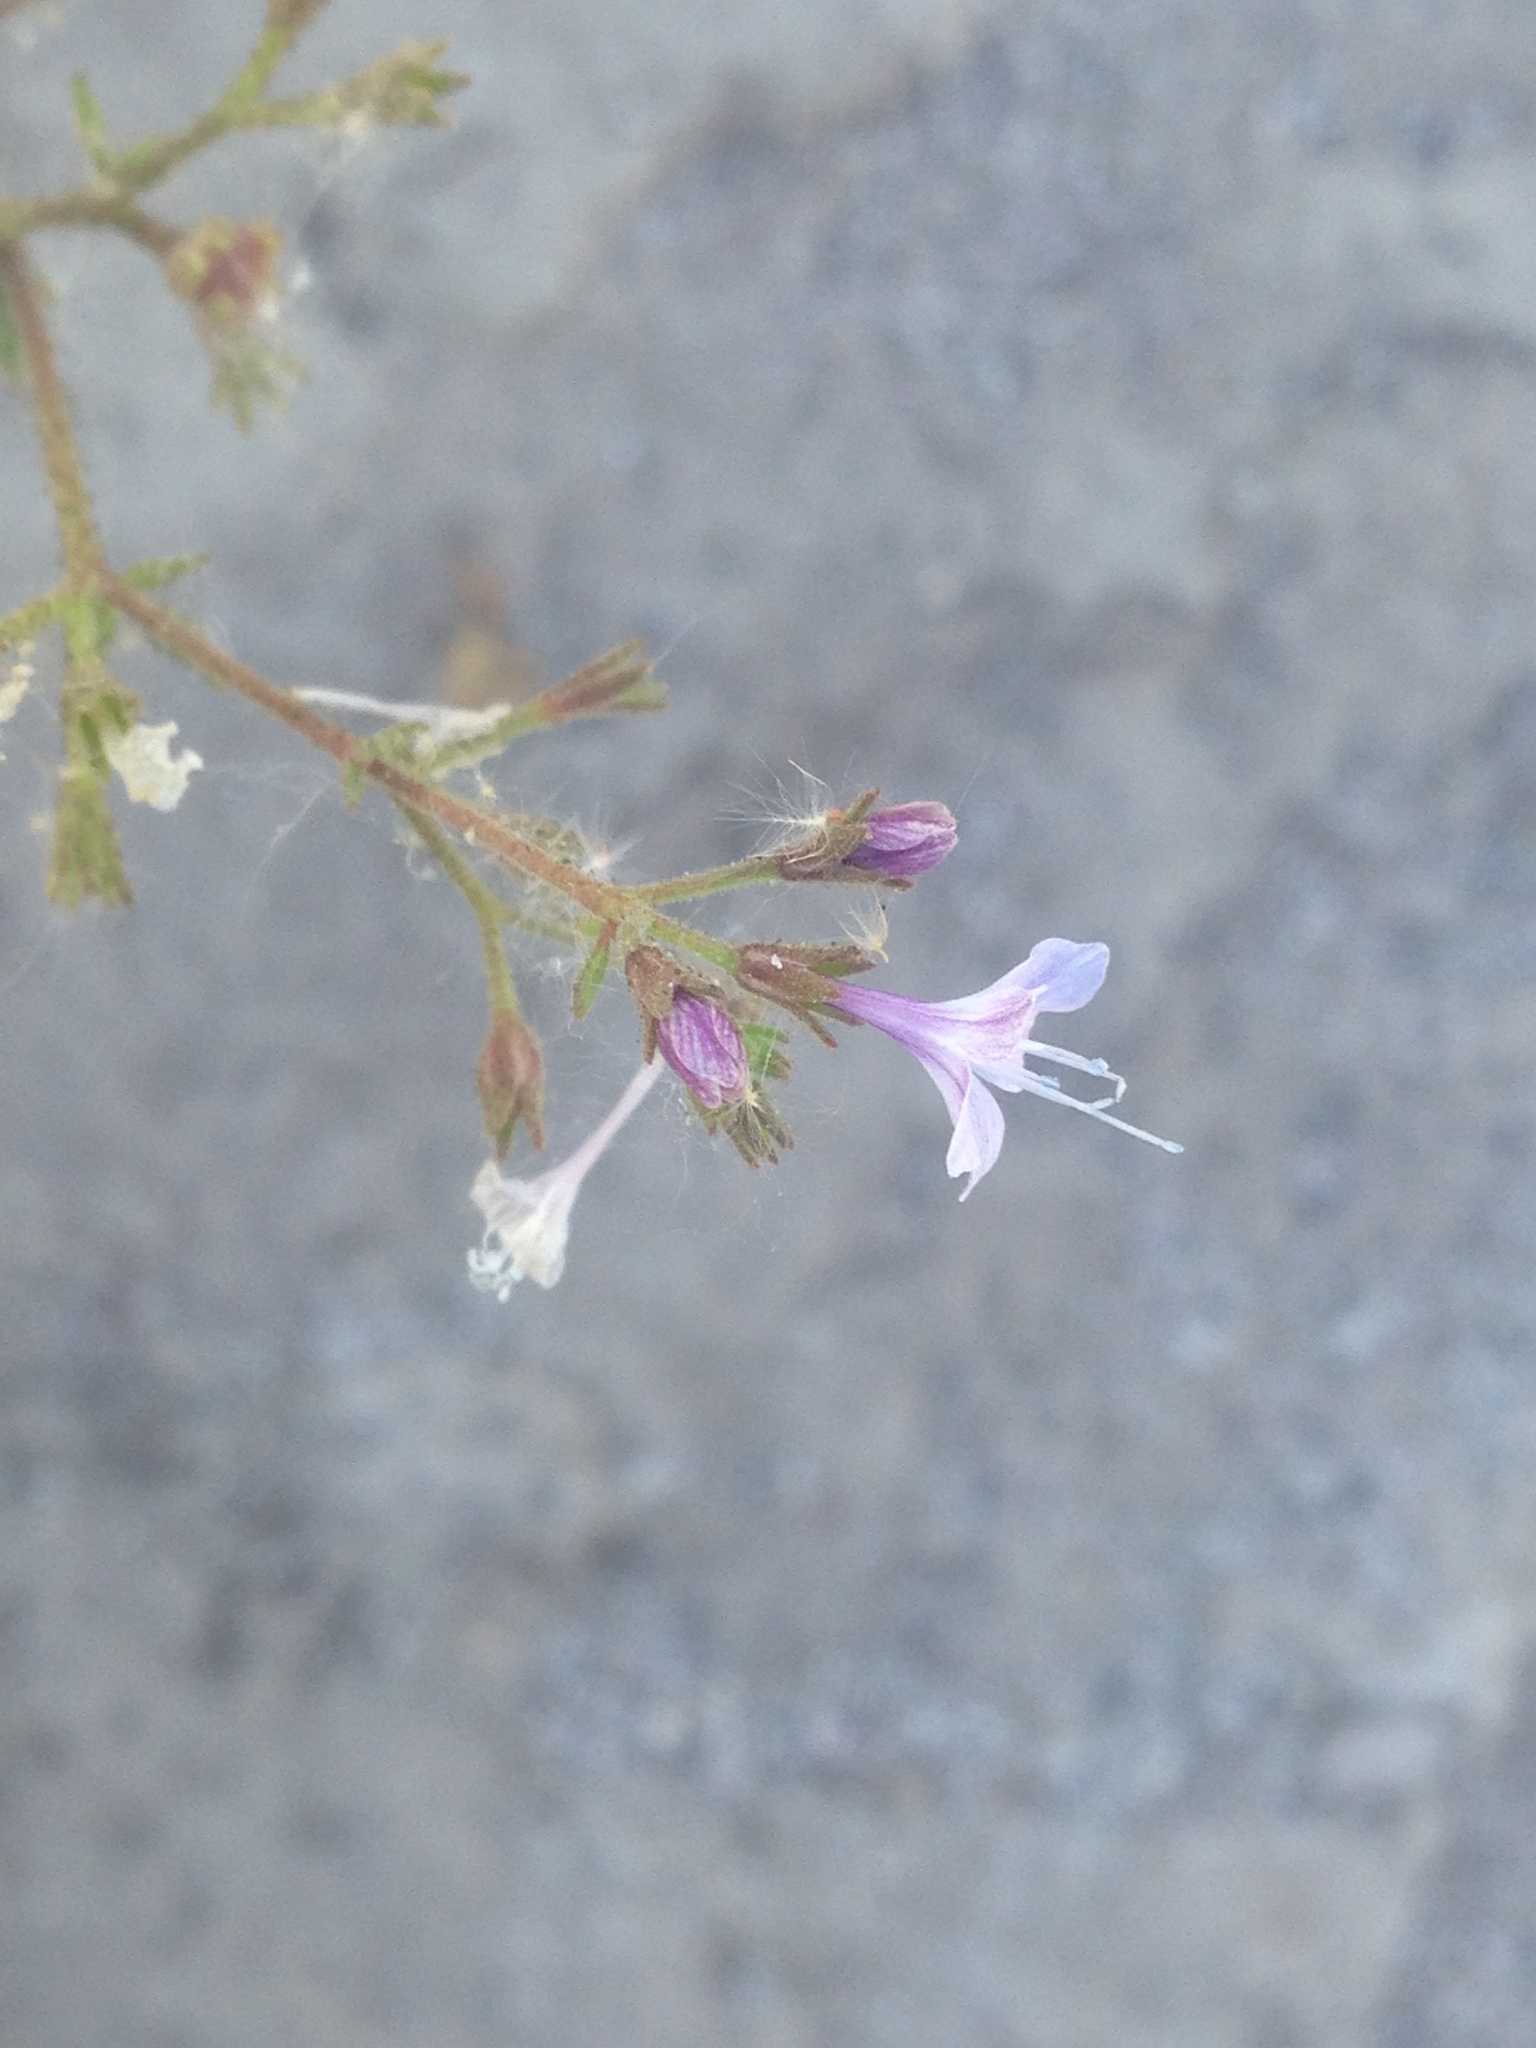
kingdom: Plantae
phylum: Tracheophyta
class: Magnoliopsida
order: Ericales
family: Polemoniaceae
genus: Allophyllum
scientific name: Allophyllum glutinosum
